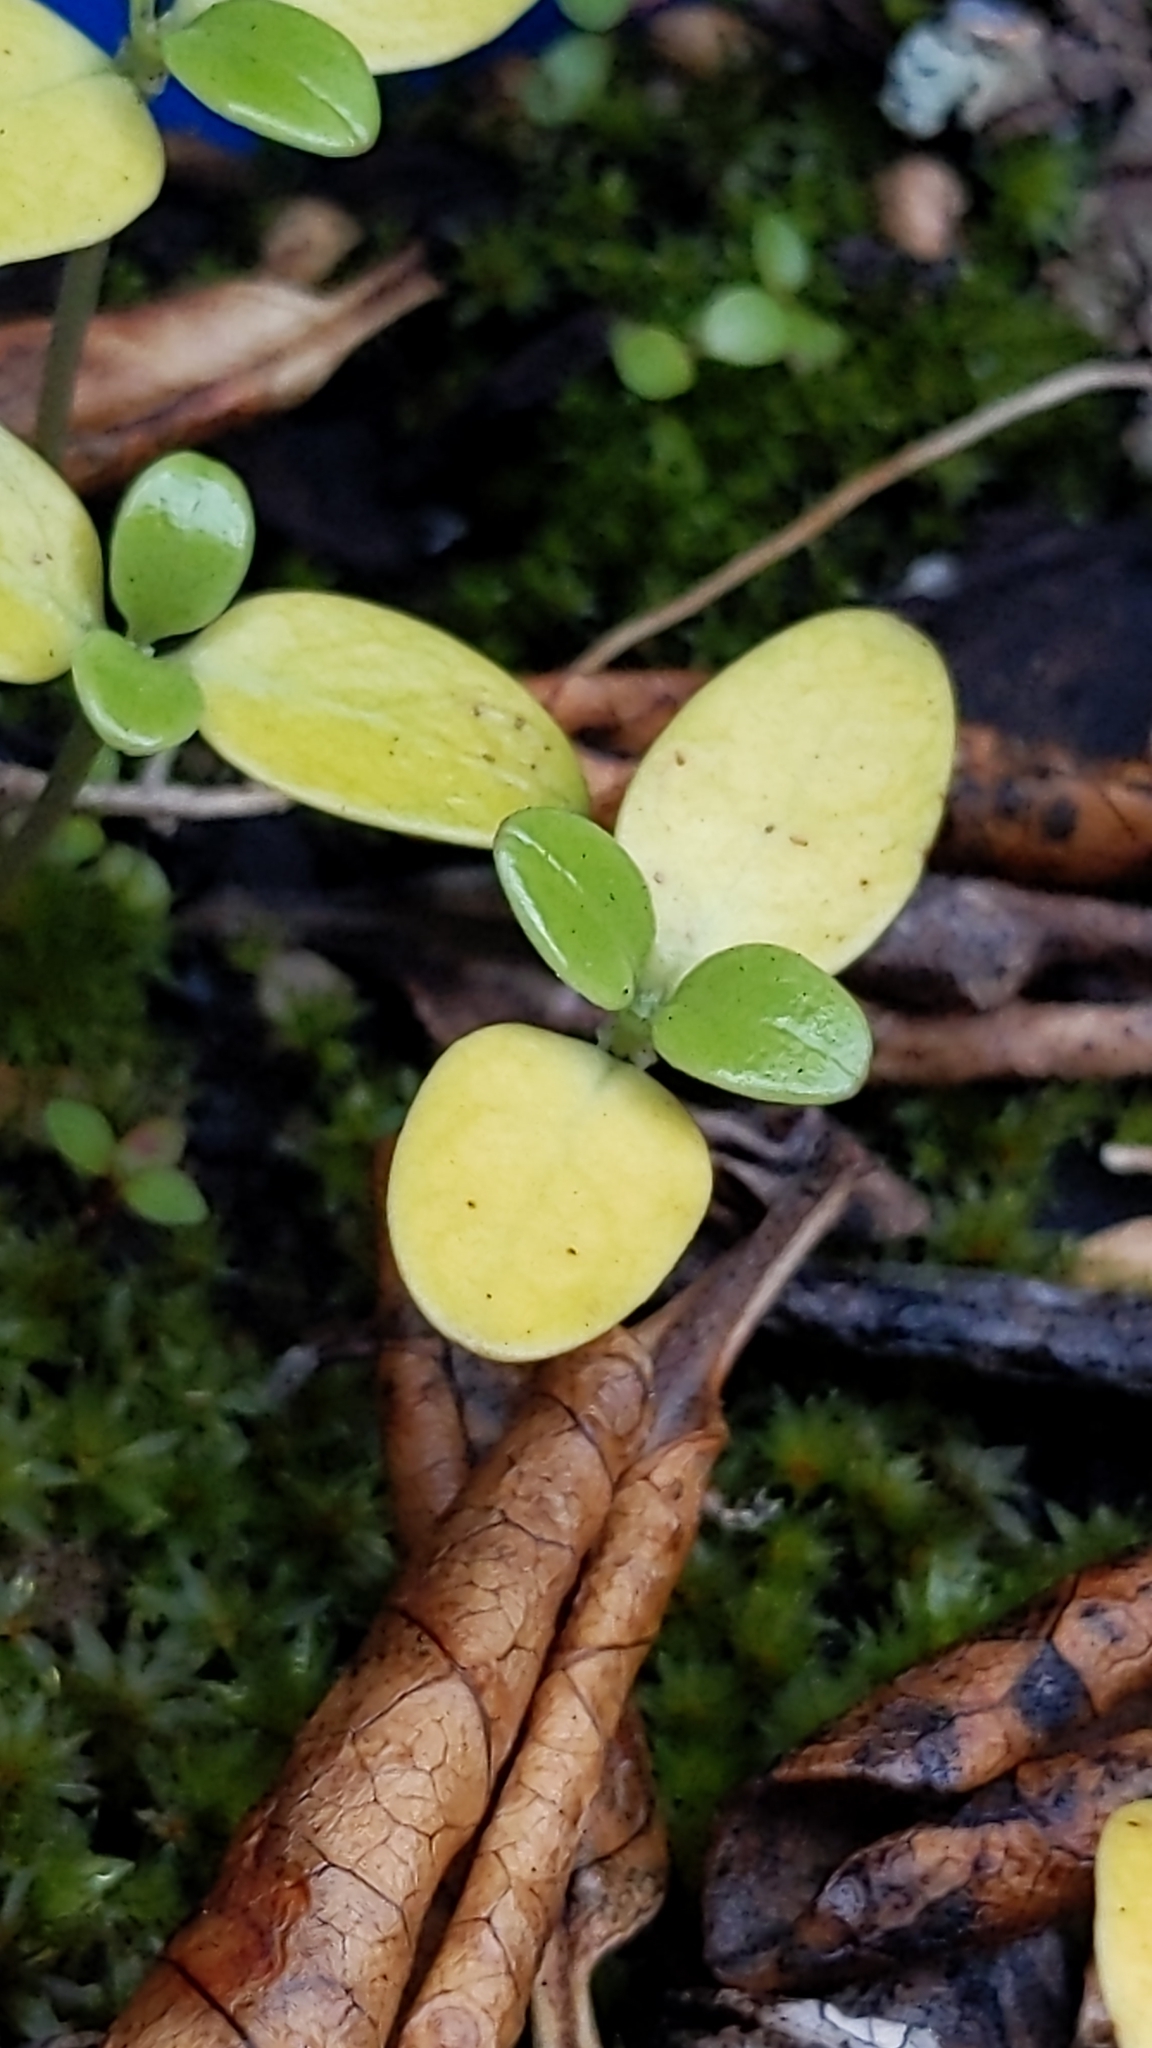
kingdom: Plantae
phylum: Tracheophyta
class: Magnoliopsida
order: Gentianales
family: Rubiaceae
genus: Coprosma
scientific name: Coprosma repens
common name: Tree bedstraw
